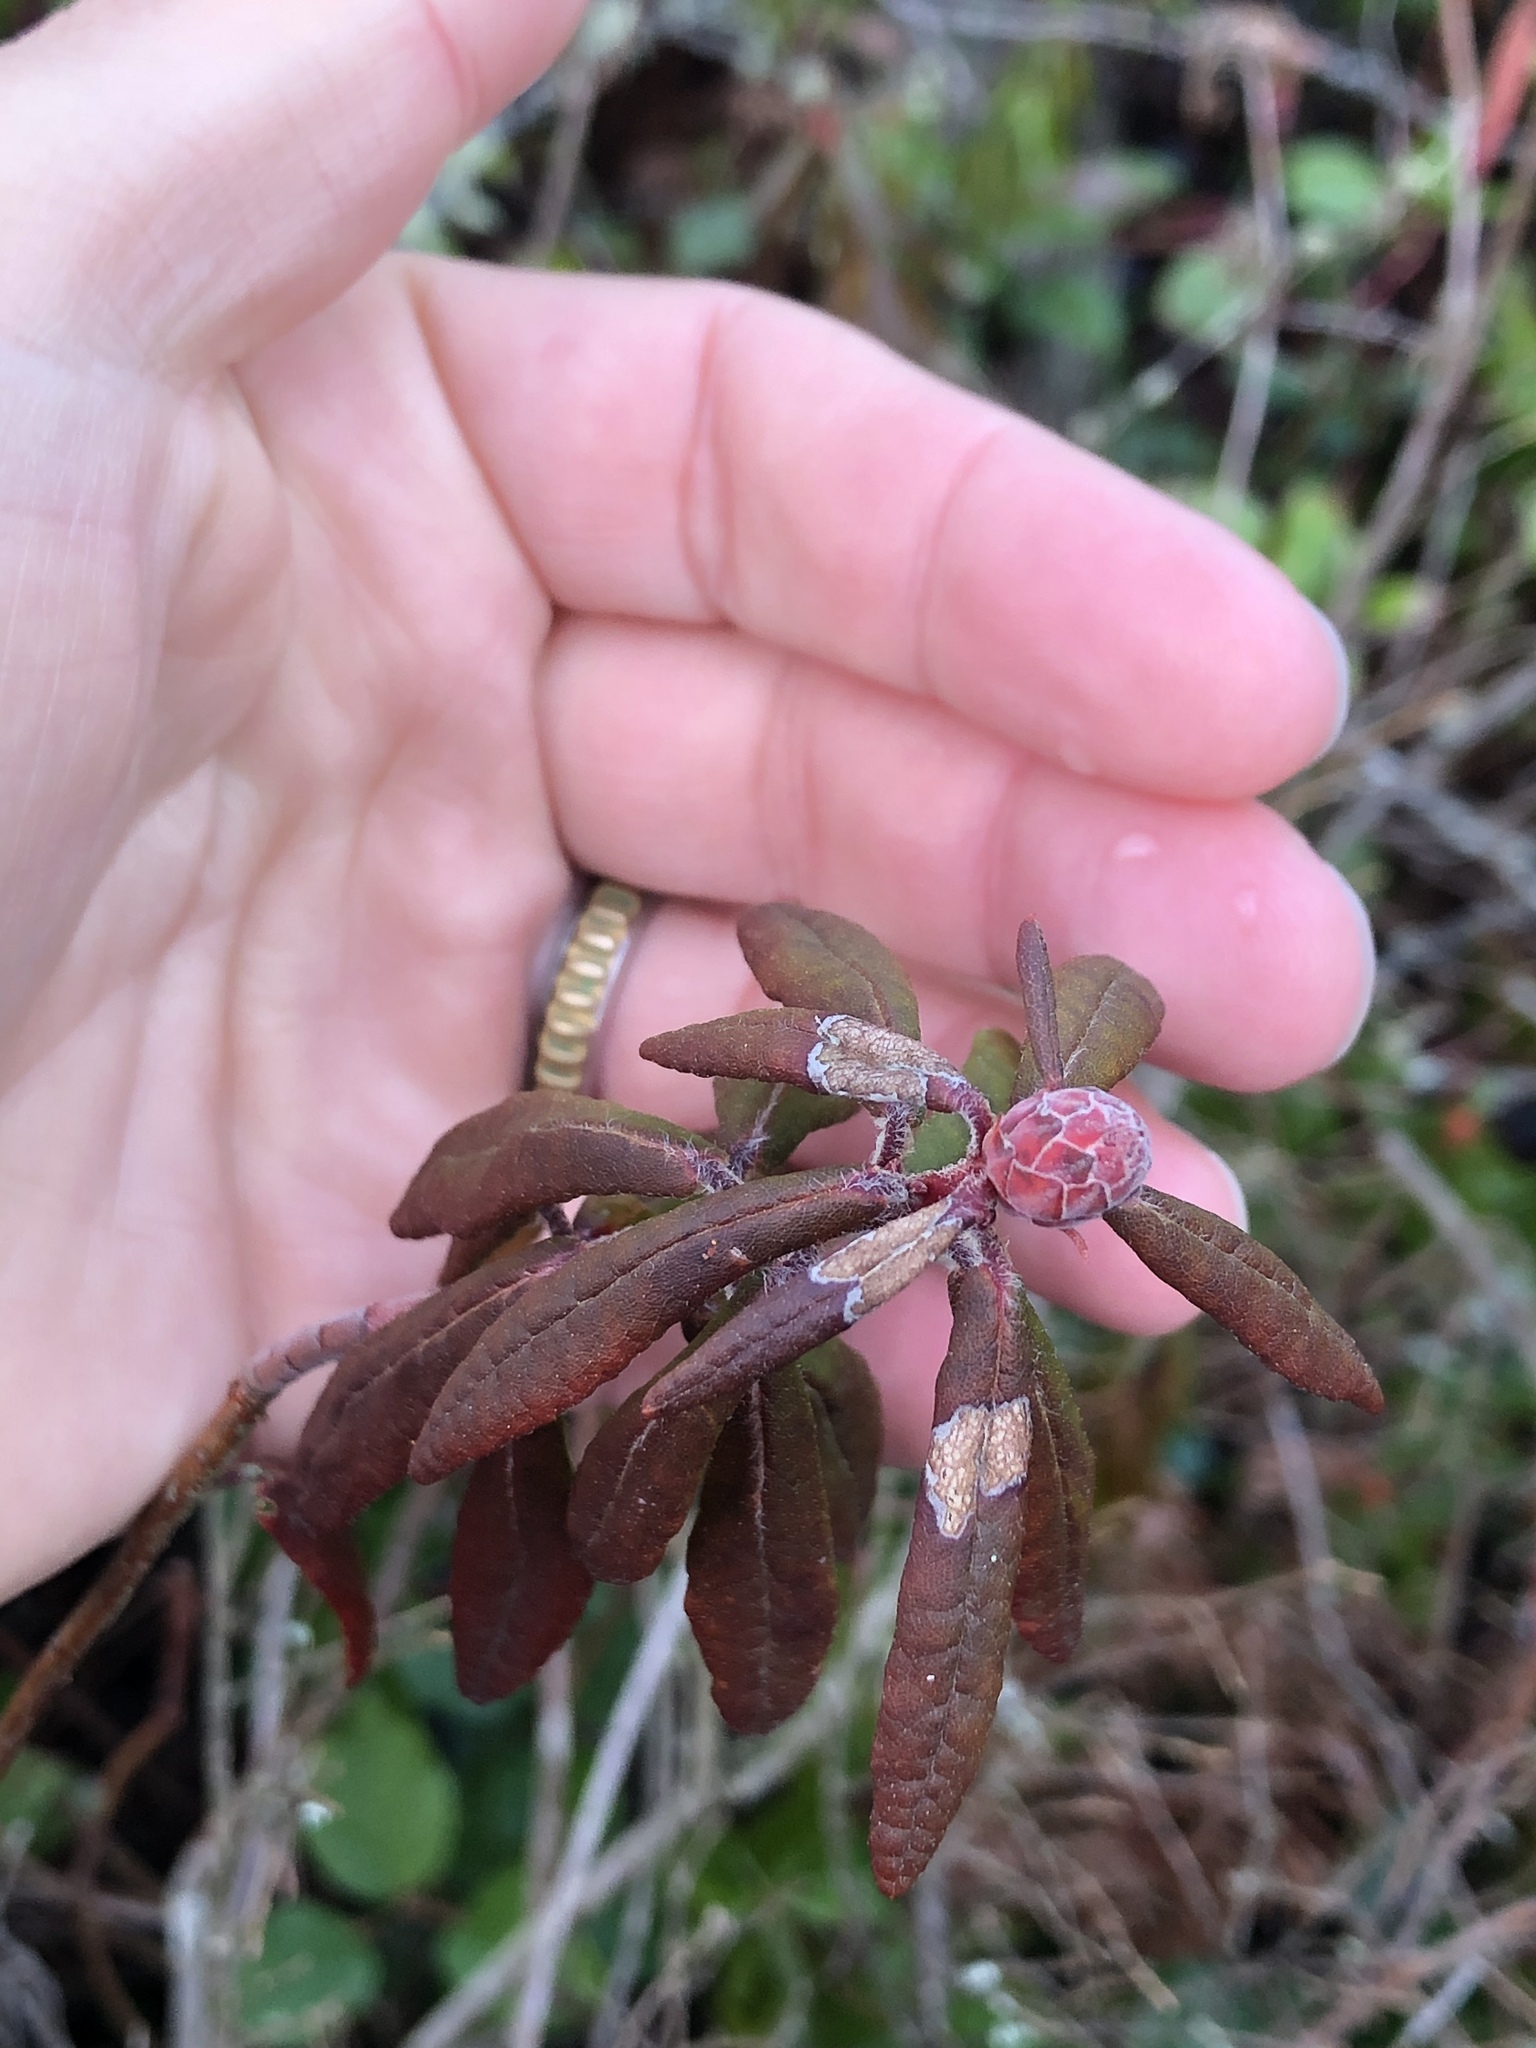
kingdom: Plantae
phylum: Tracheophyta
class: Magnoliopsida
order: Ericales
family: Ericaceae
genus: Rhododendron
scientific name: Rhododendron groenlandicum
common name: Bog labrador tea
